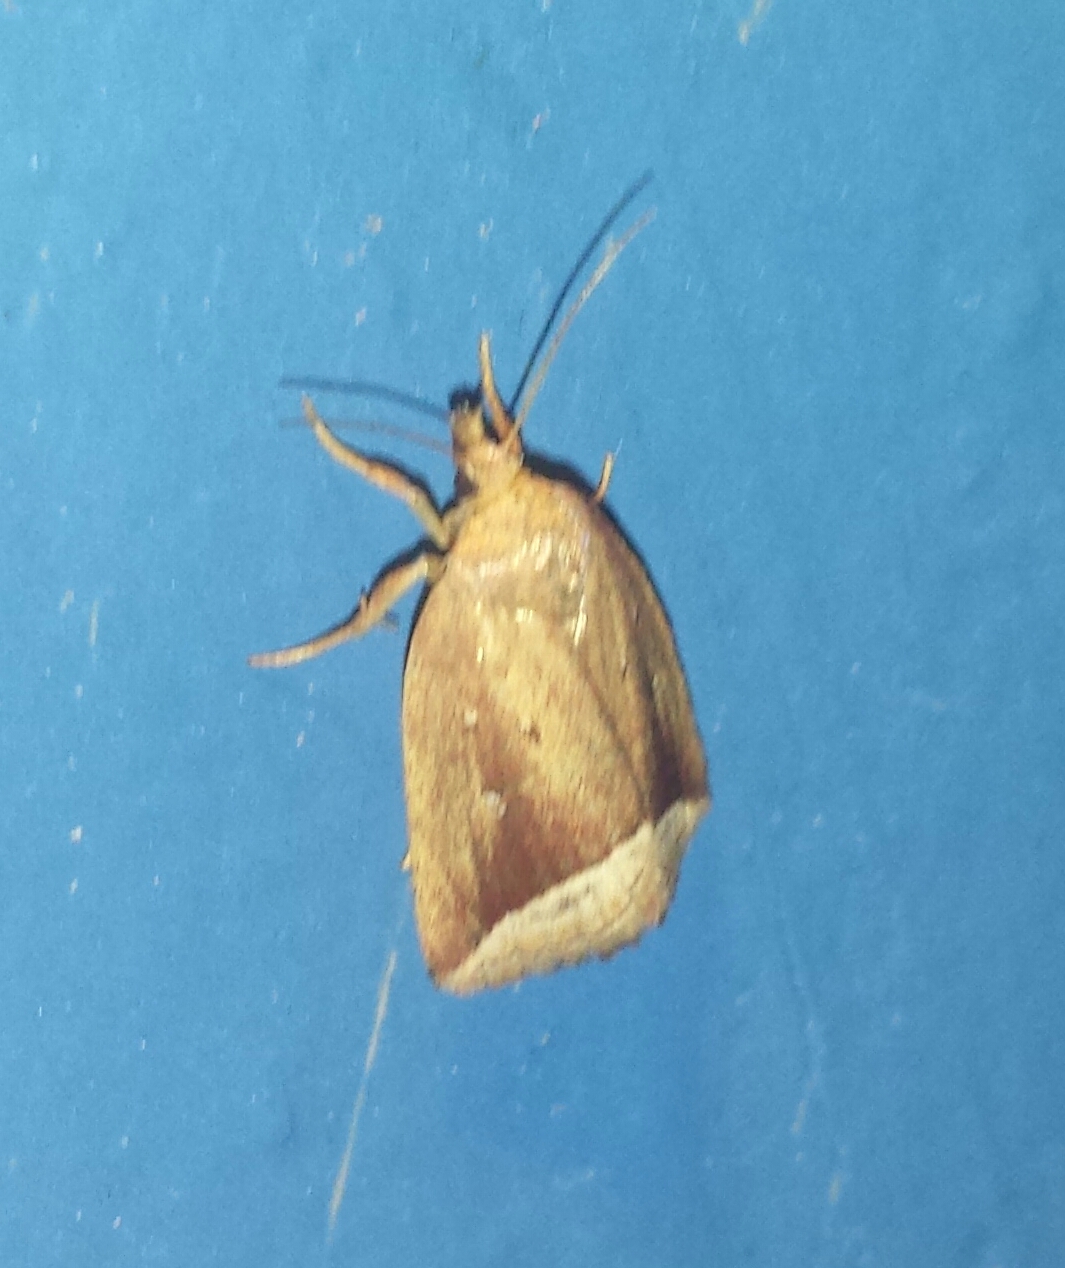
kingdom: Animalia
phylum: Arthropoda
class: Insecta
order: Lepidoptera
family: Erebidae
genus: Capis
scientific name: Capis curvata
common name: Curved halter moth
